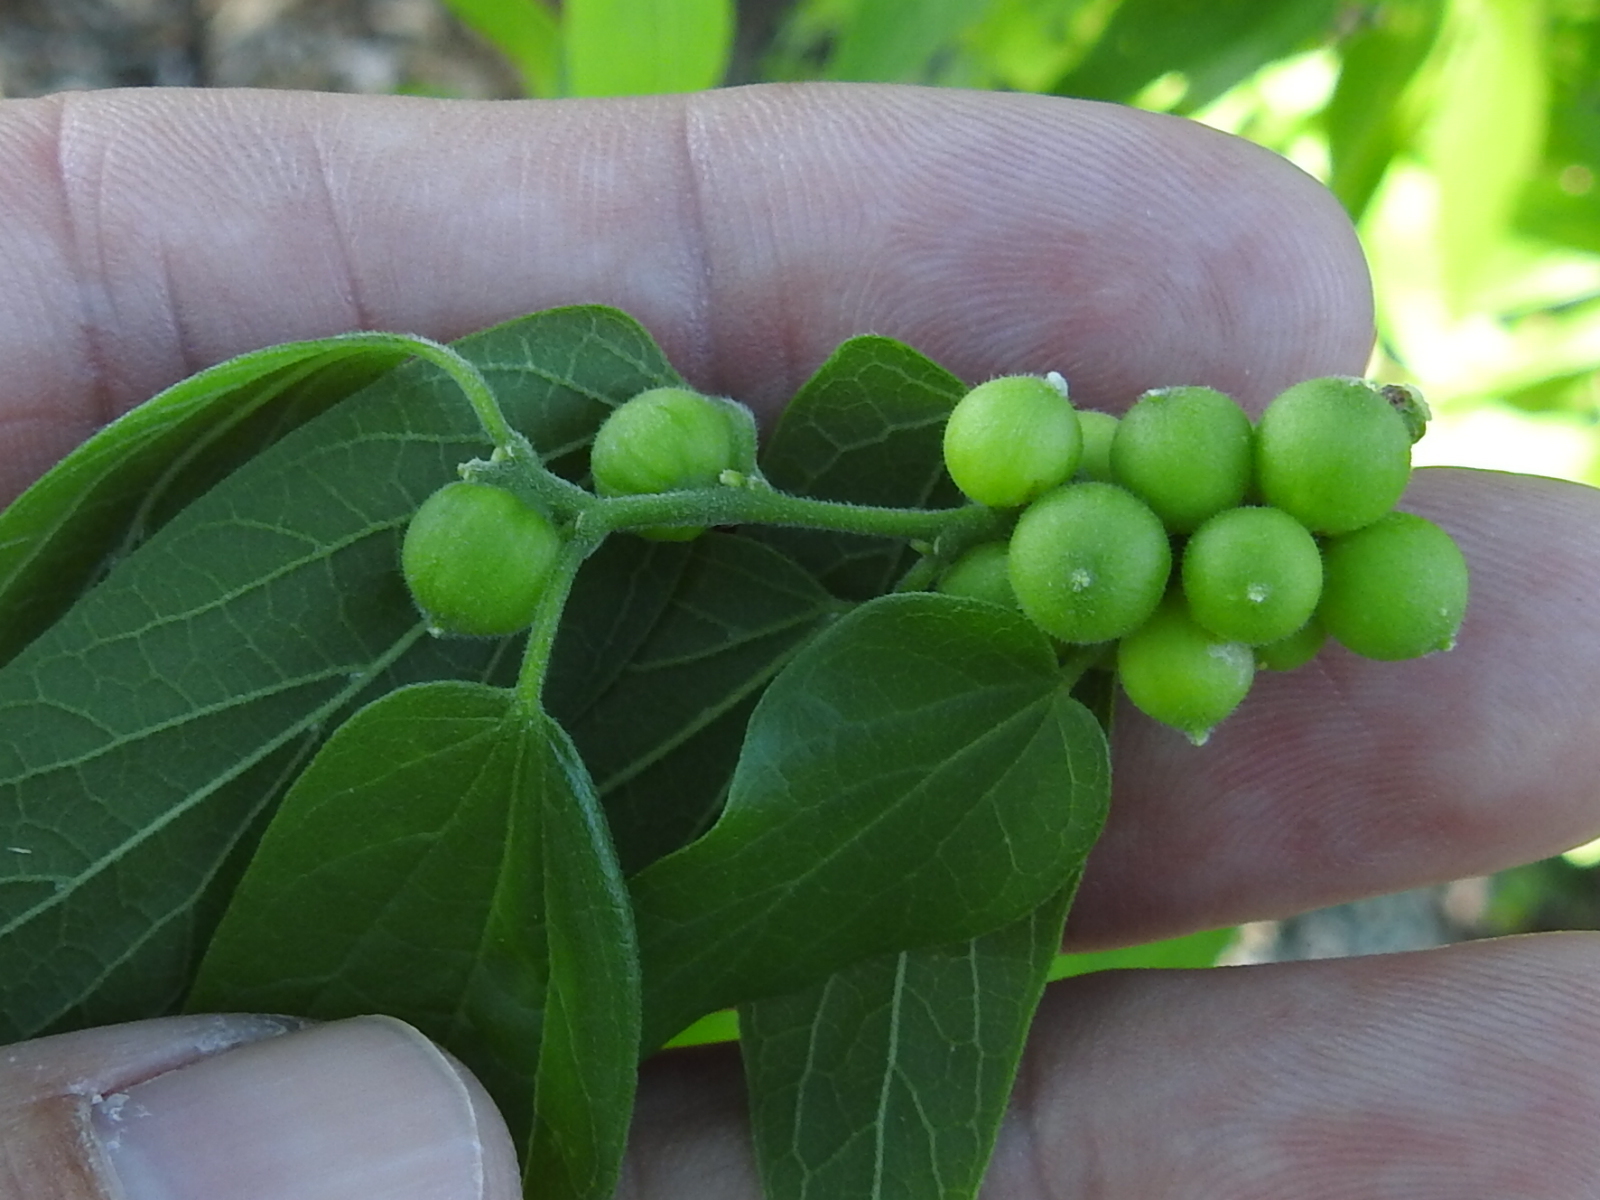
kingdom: Animalia
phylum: Arthropoda
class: Insecta
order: Diptera
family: Cecidomyiidae
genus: Celticecis
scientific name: Celticecis oviformis
